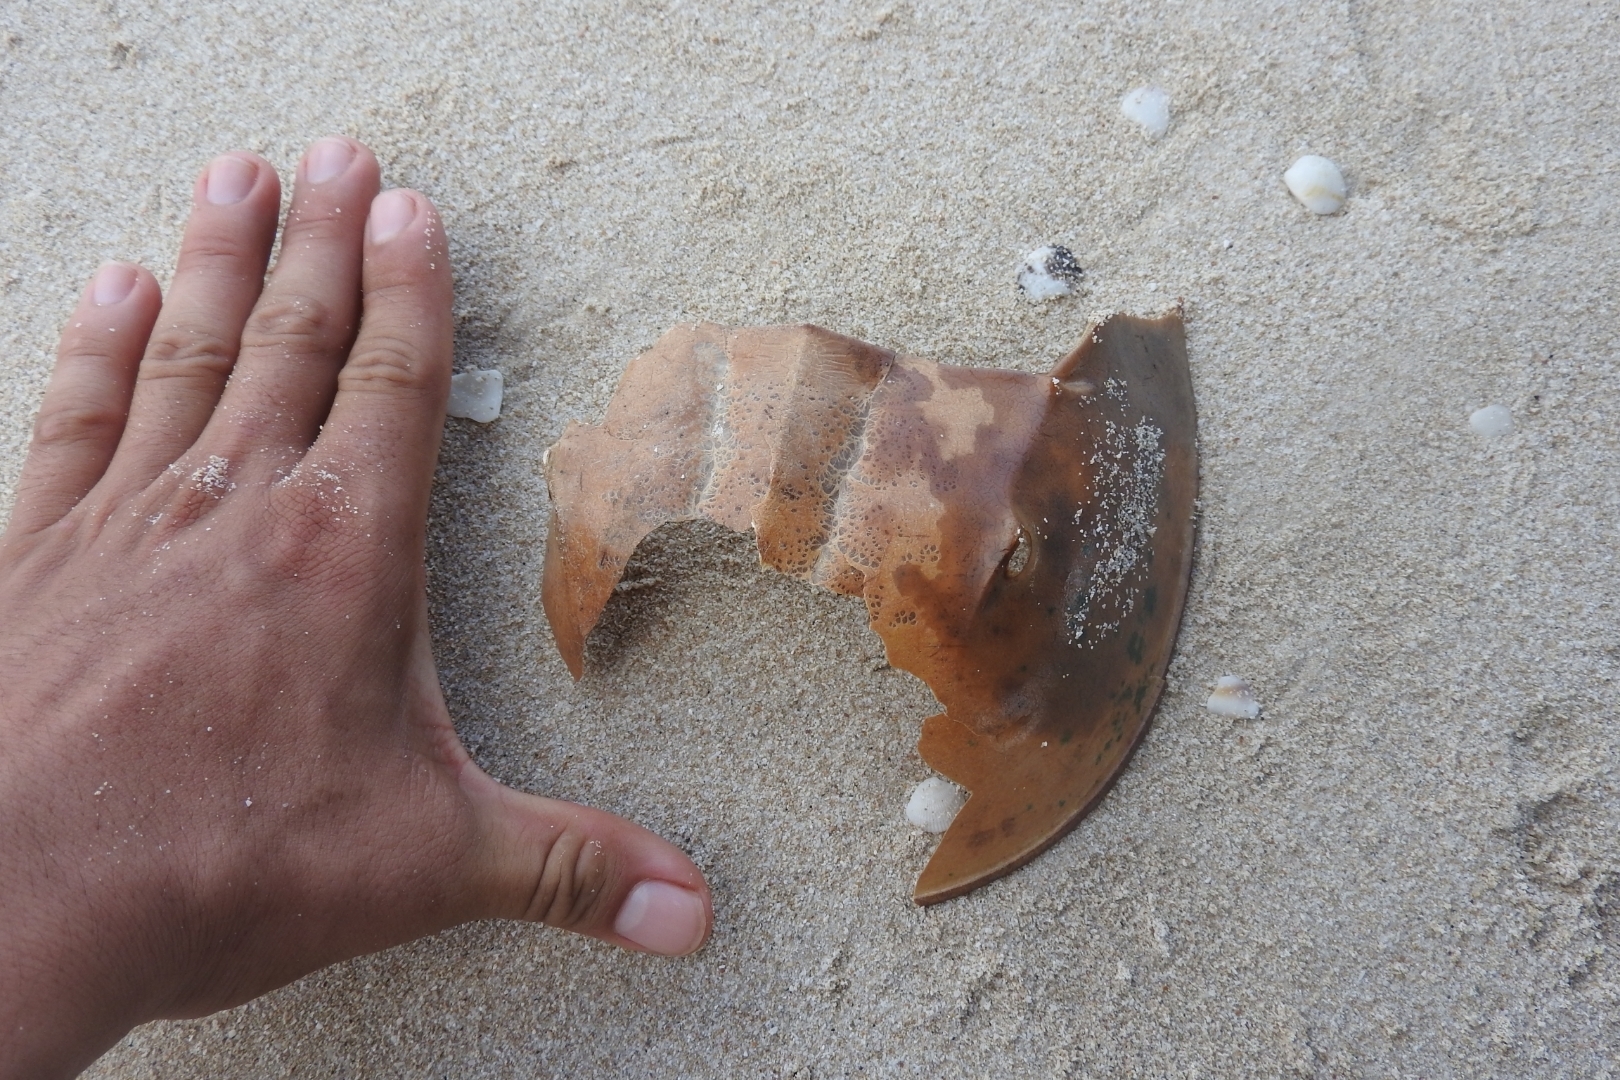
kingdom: Animalia
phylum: Arthropoda
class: Merostomata
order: Xiphosurida
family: Limulidae
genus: Limulus
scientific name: Limulus polyphemus
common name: Horseshoe crab
